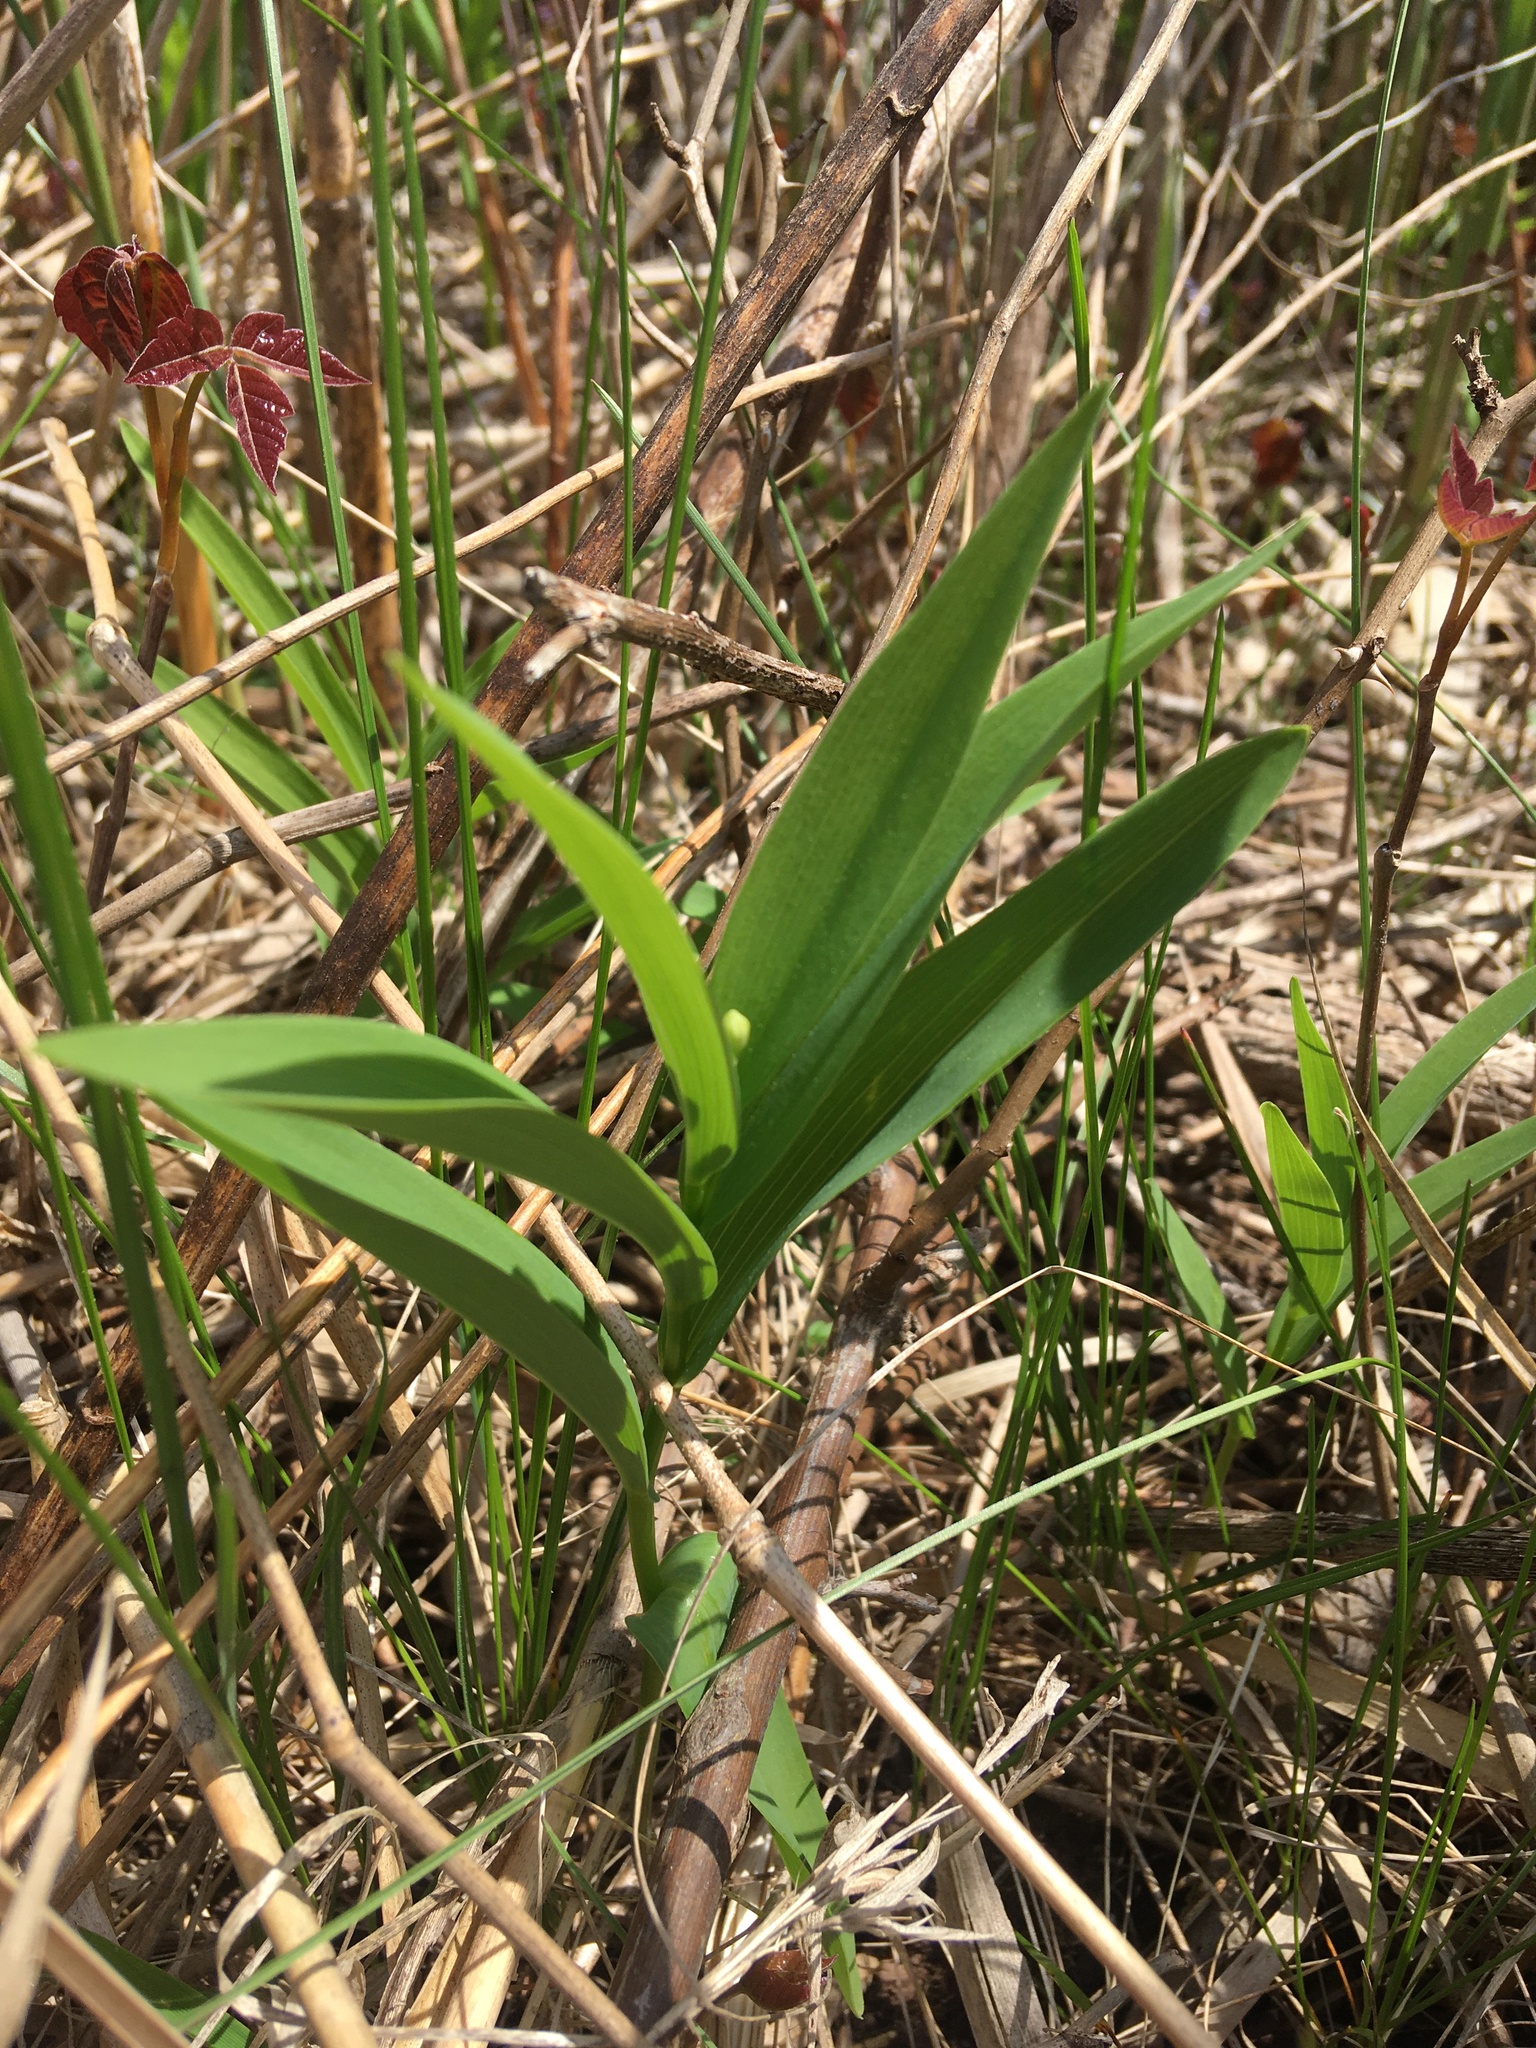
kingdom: Plantae
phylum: Tracheophyta
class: Liliopsida
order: Asparagales
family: Asparagaceae
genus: Maianthemum
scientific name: Maianthemum stellatum
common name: Little false solomon's seal
